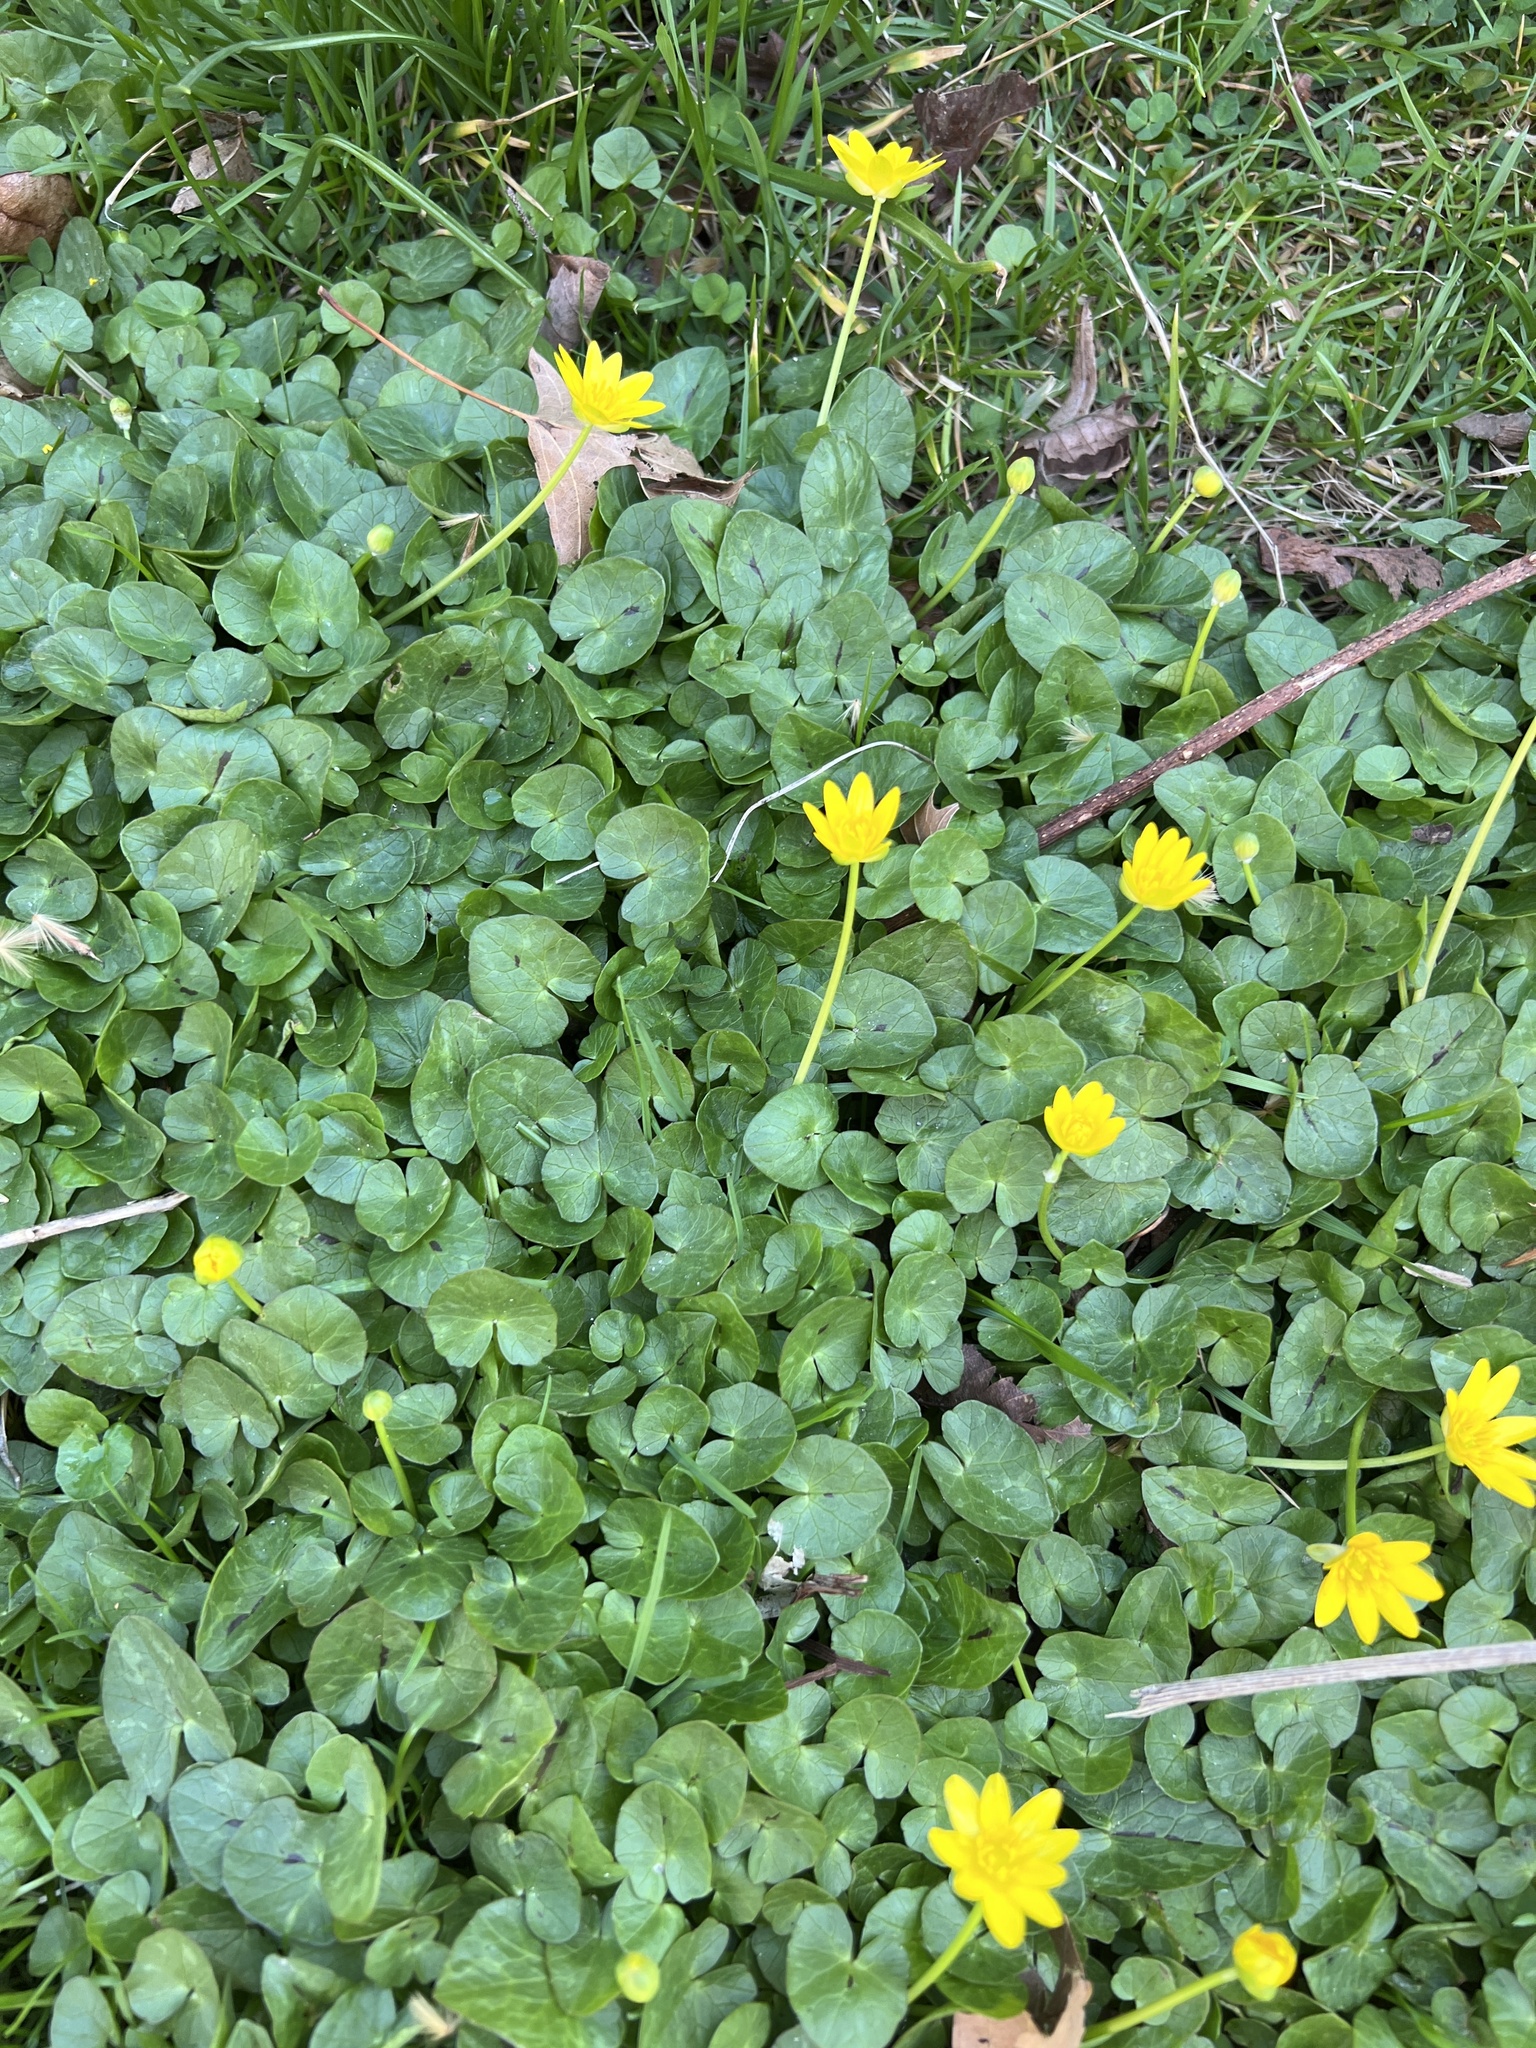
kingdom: Plantae
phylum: Tracheophyta
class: Magnoliopsida
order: Ranunculales
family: Ranunculaceae
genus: Ficaria
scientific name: Ficaria verna
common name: Lesser celandine
